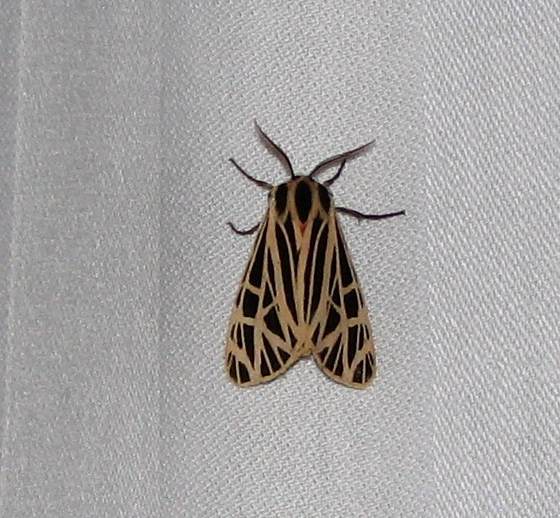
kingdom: Animalia
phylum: Arthropoda
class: Insecta
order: Lepidoptera
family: Erebidae
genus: Grammia
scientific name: Grammia virgo
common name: Virgin tiger moth
